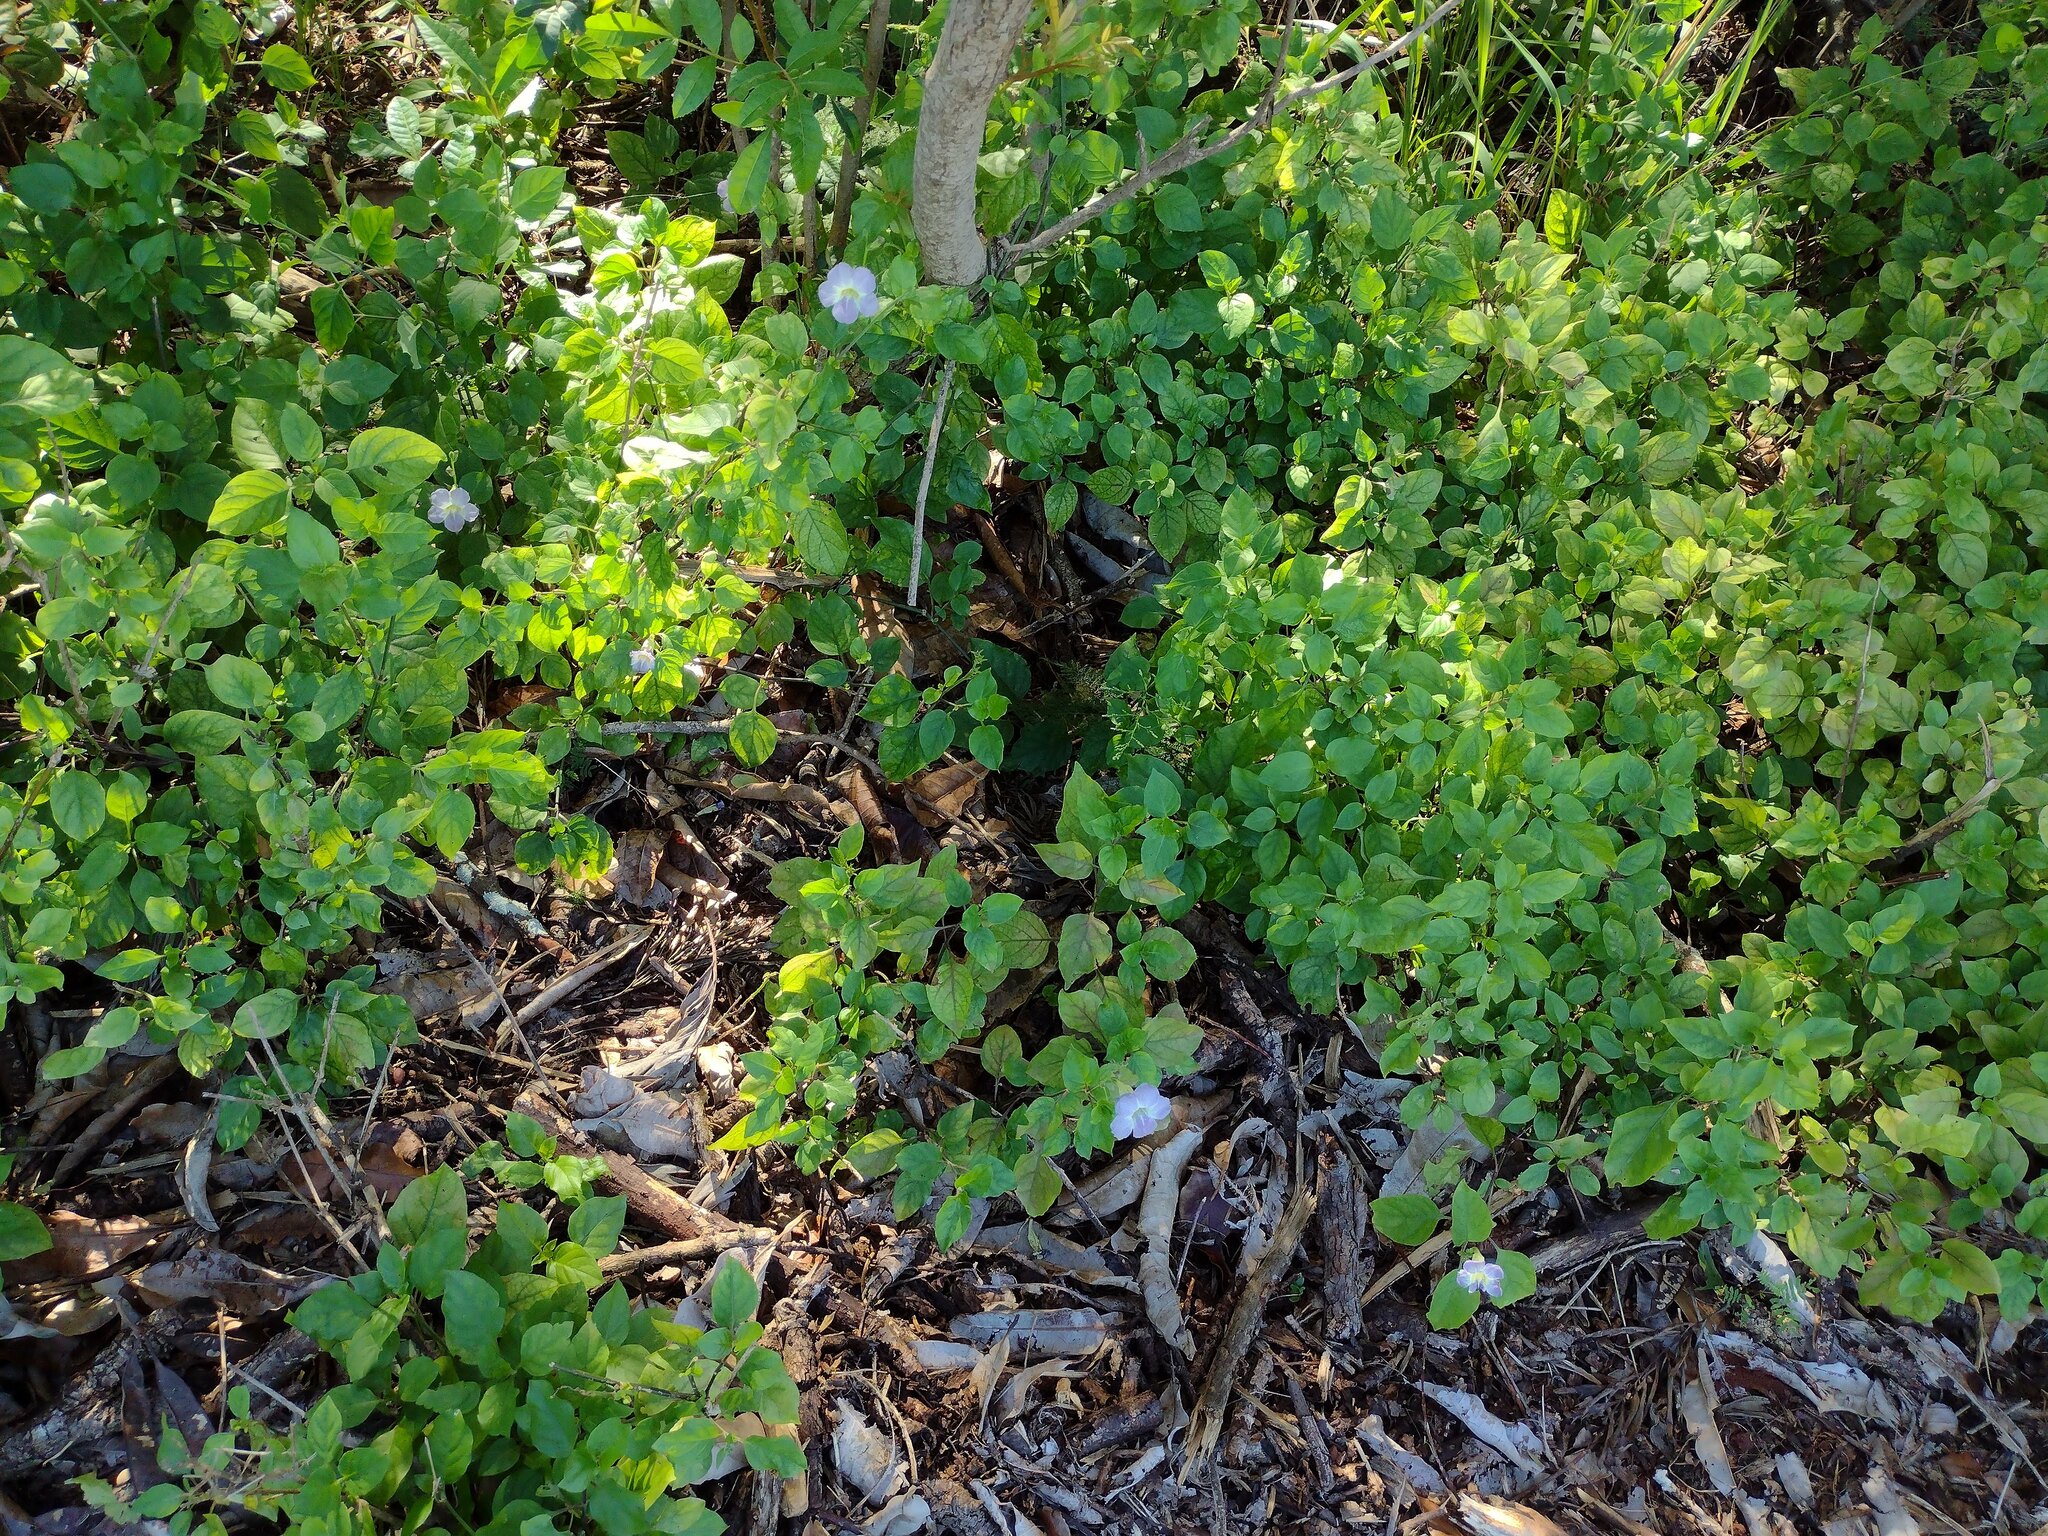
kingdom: Plantae
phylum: Tracheophyta
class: Magnoliopsida
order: Lamiales
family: Acanthaceae
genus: Asystasia
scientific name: Asystasia gangetica
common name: Chinese violet
